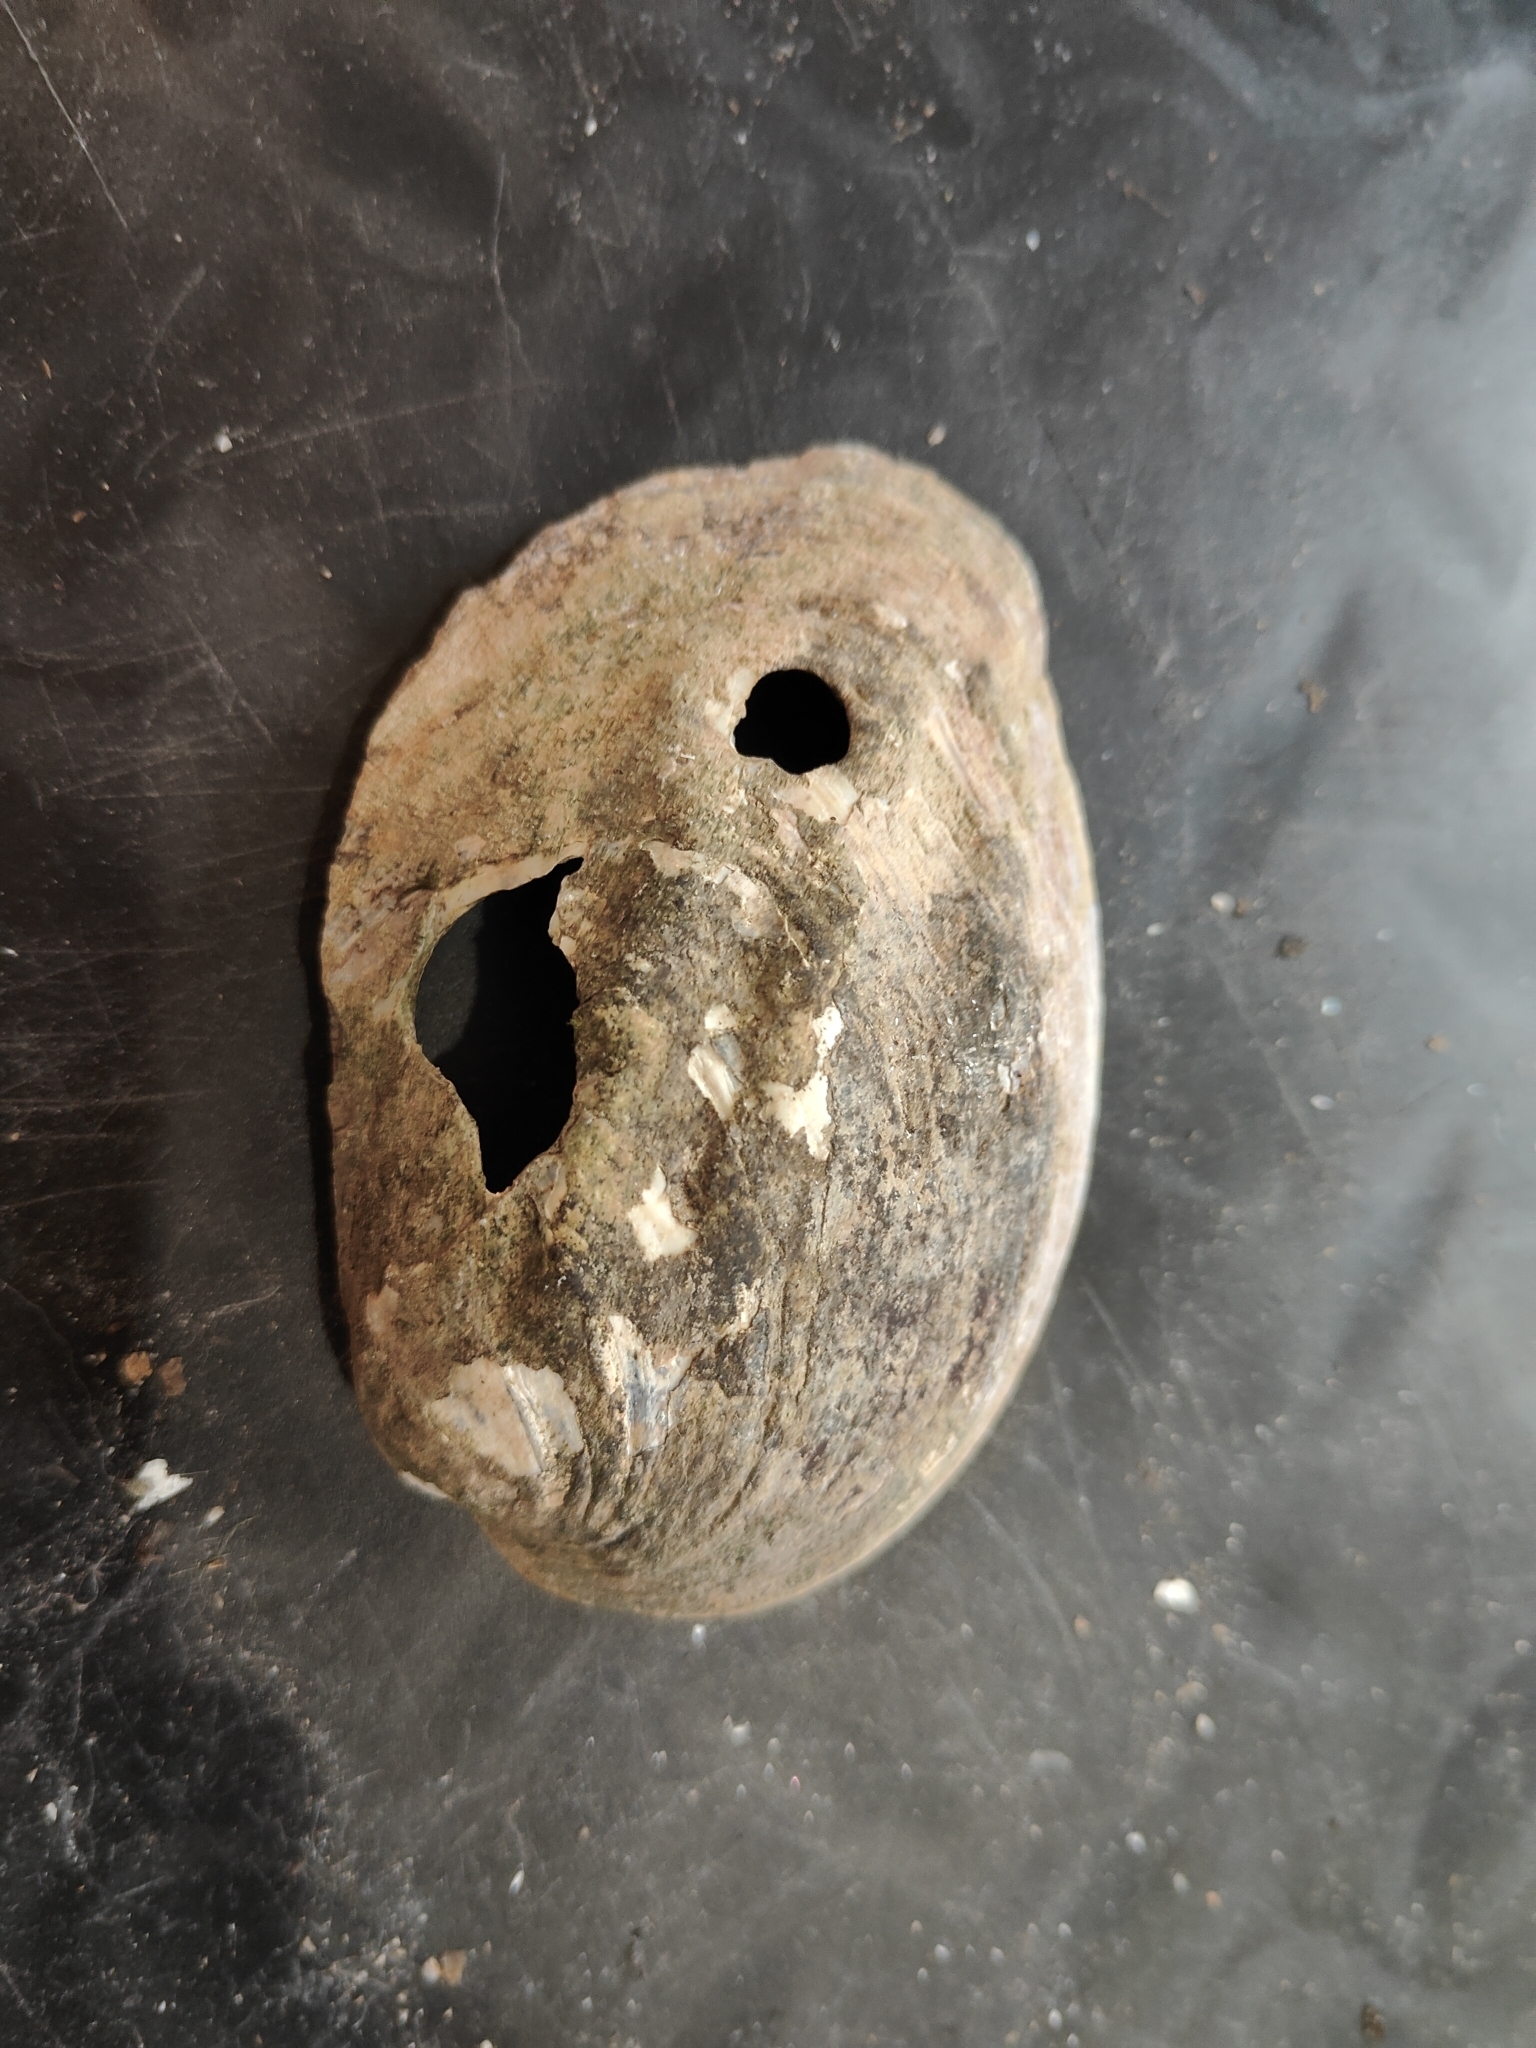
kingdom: Animalia
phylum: Mollusca
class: Bivalvia
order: Unionida
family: Unionidae
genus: Amblema
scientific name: Amblema plicata
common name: Threeridge
